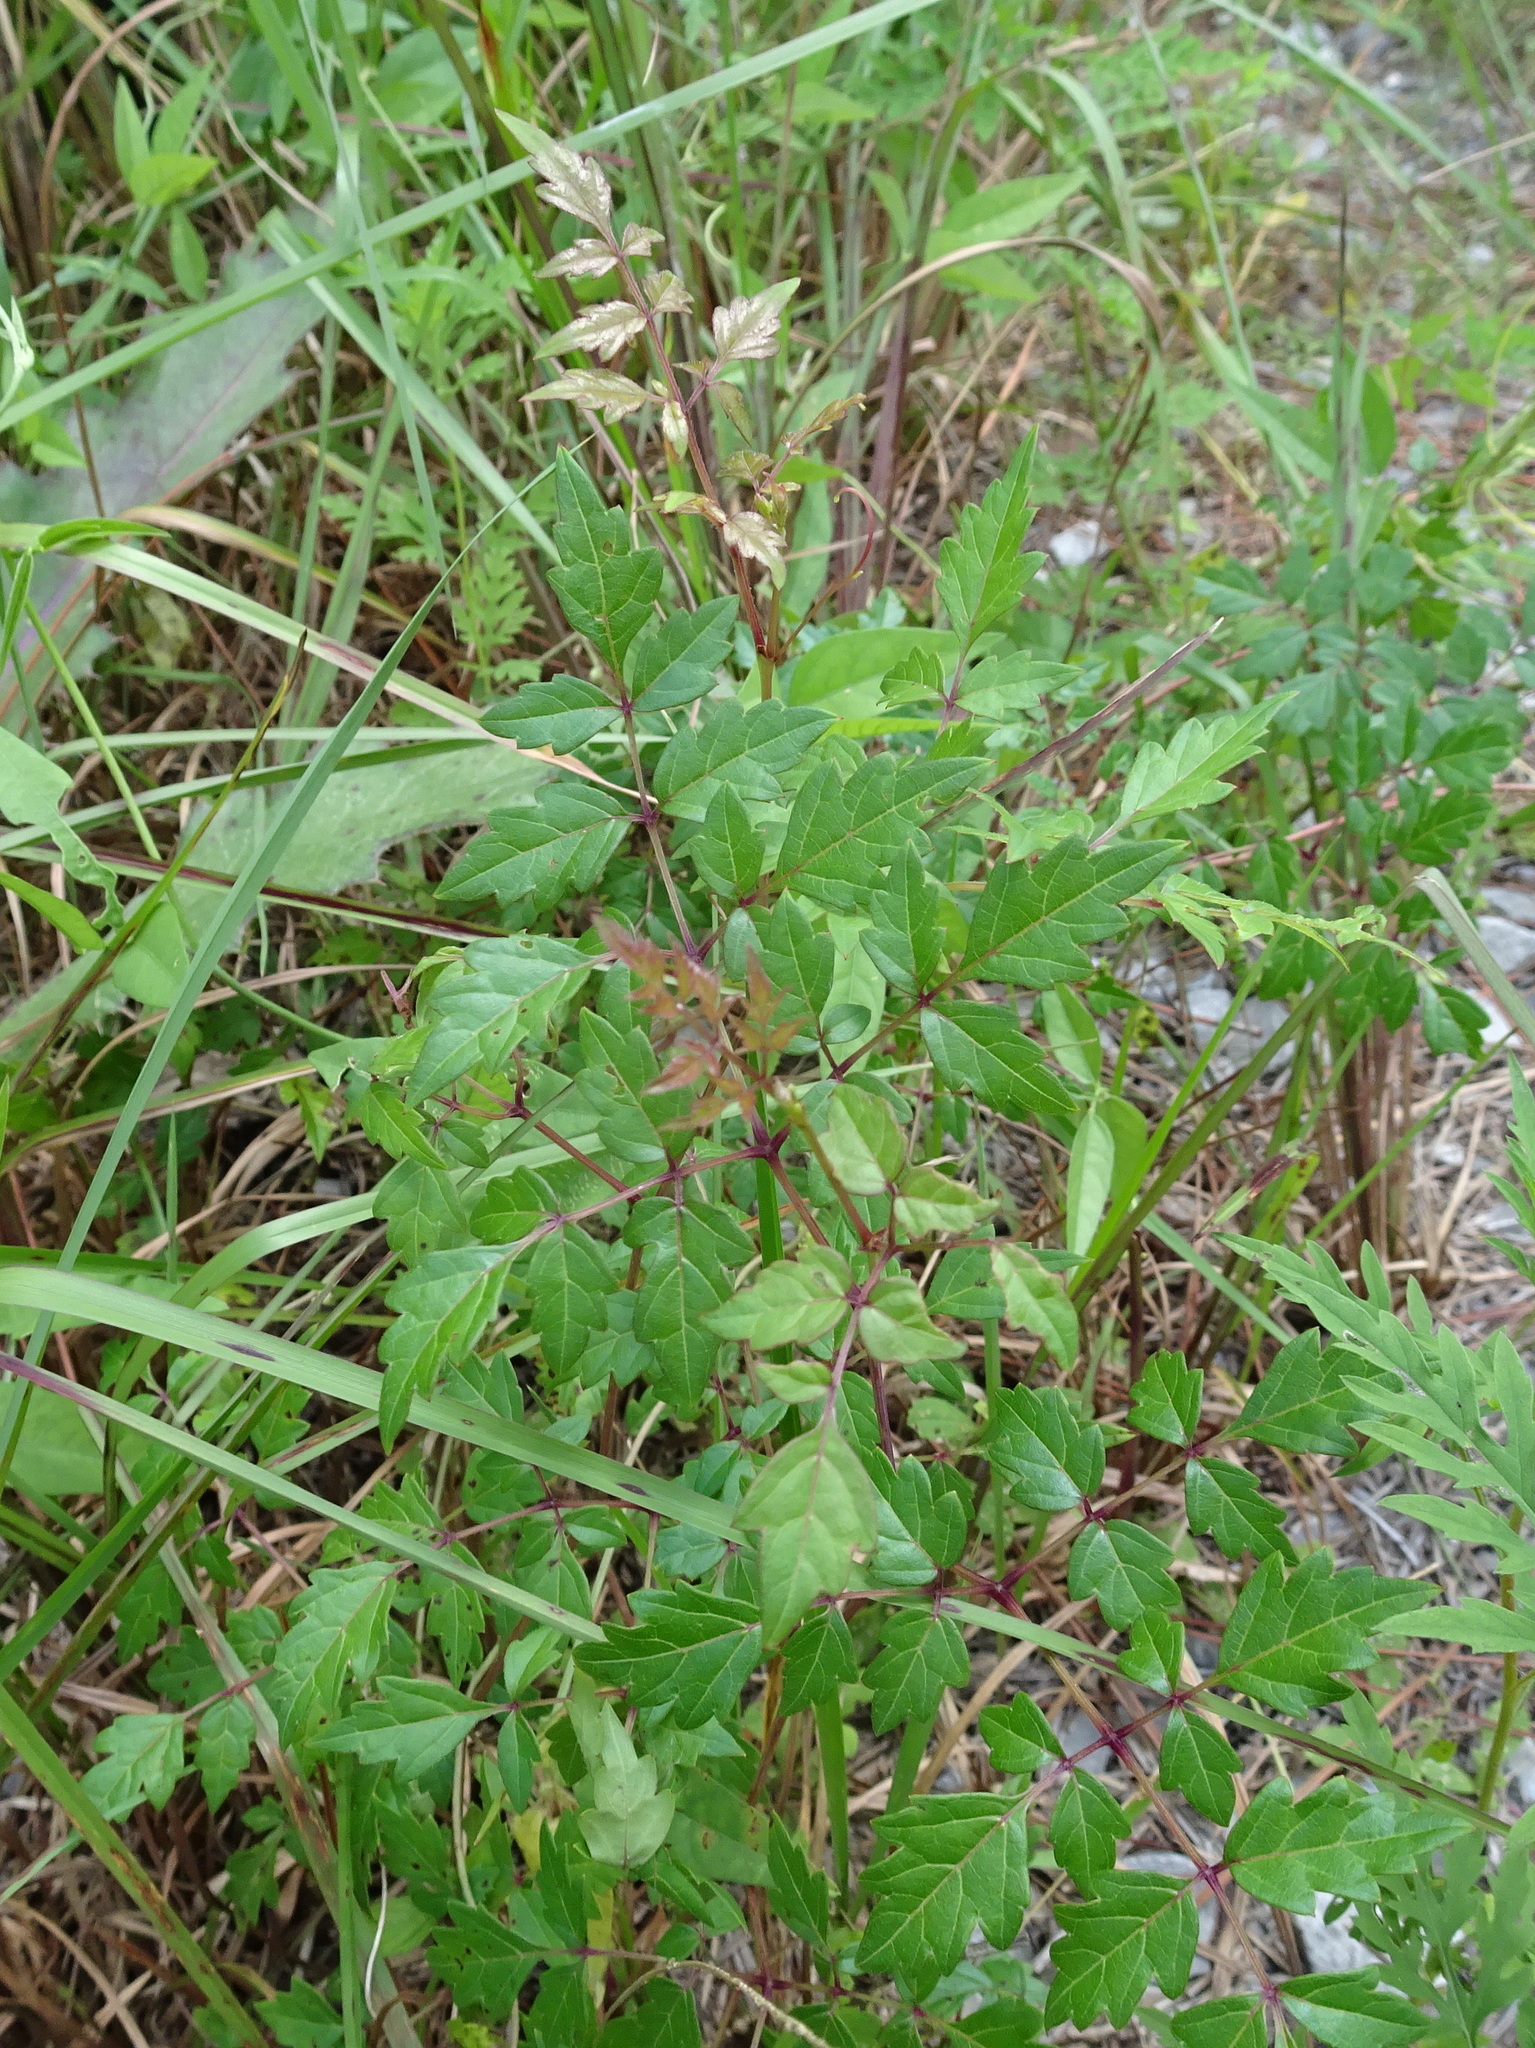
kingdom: Plantae
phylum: Tracheophyta
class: Magnoliopsida
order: Vitales
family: Vitaceae
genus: Nekemias
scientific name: Nekemias arborea
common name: Peppervine
